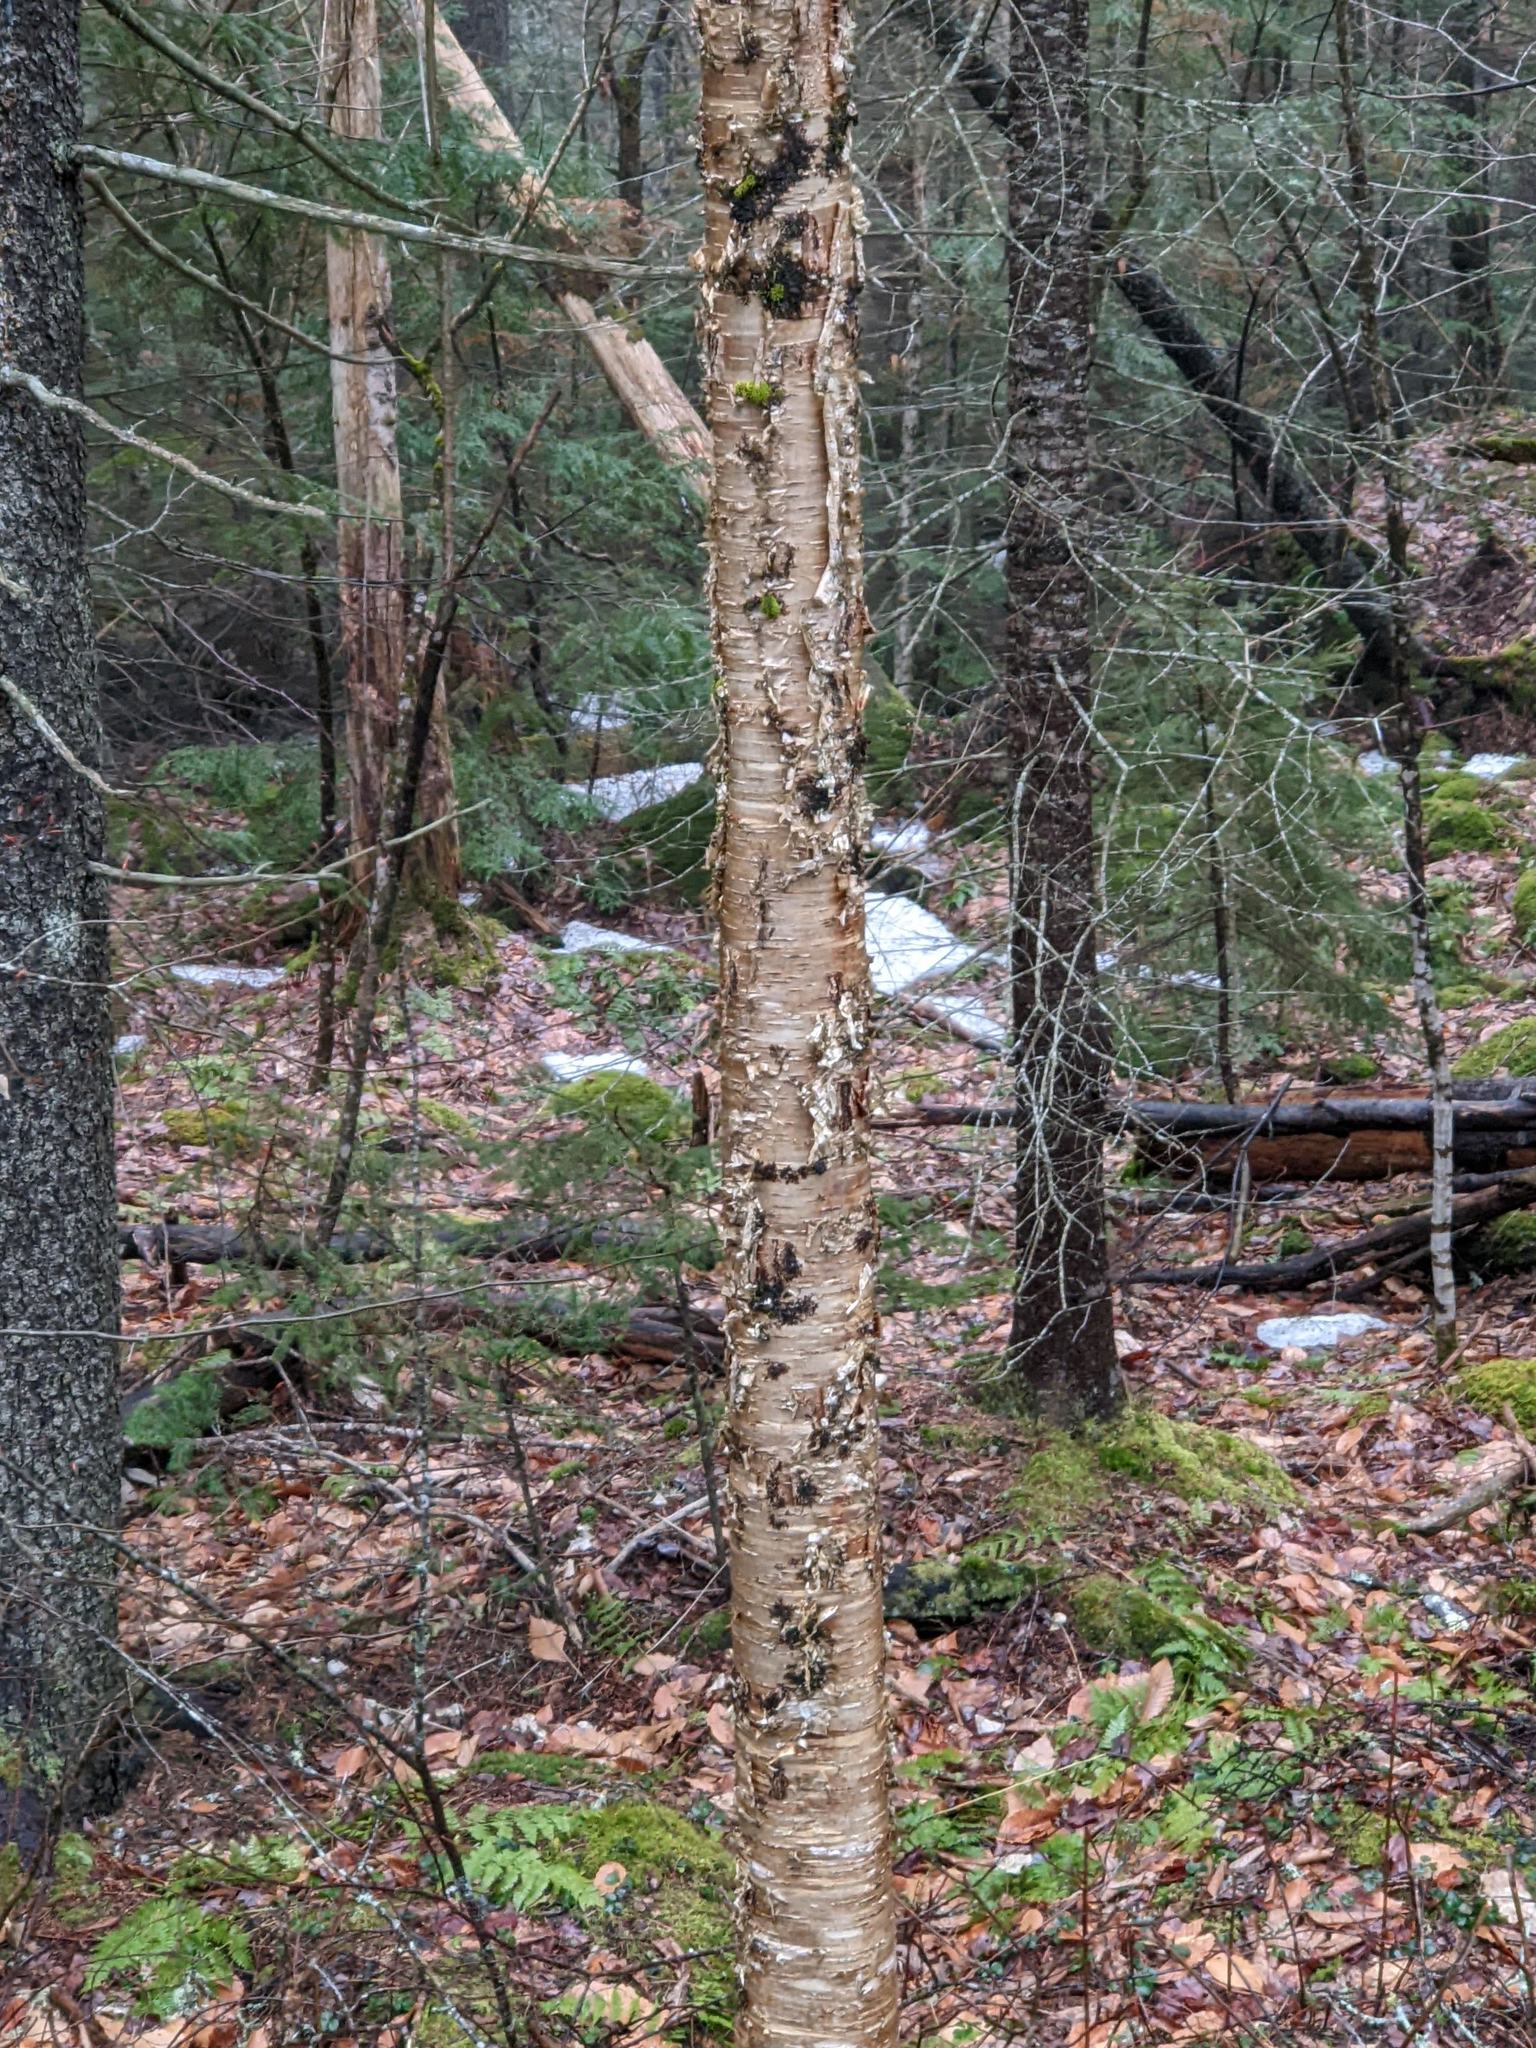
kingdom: Plantae
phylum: Tracheophyta
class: Magnoliopsida
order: Fagales
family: Betulaceae
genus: Betula
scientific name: Betula alleghaniensis
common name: Yellow birch
